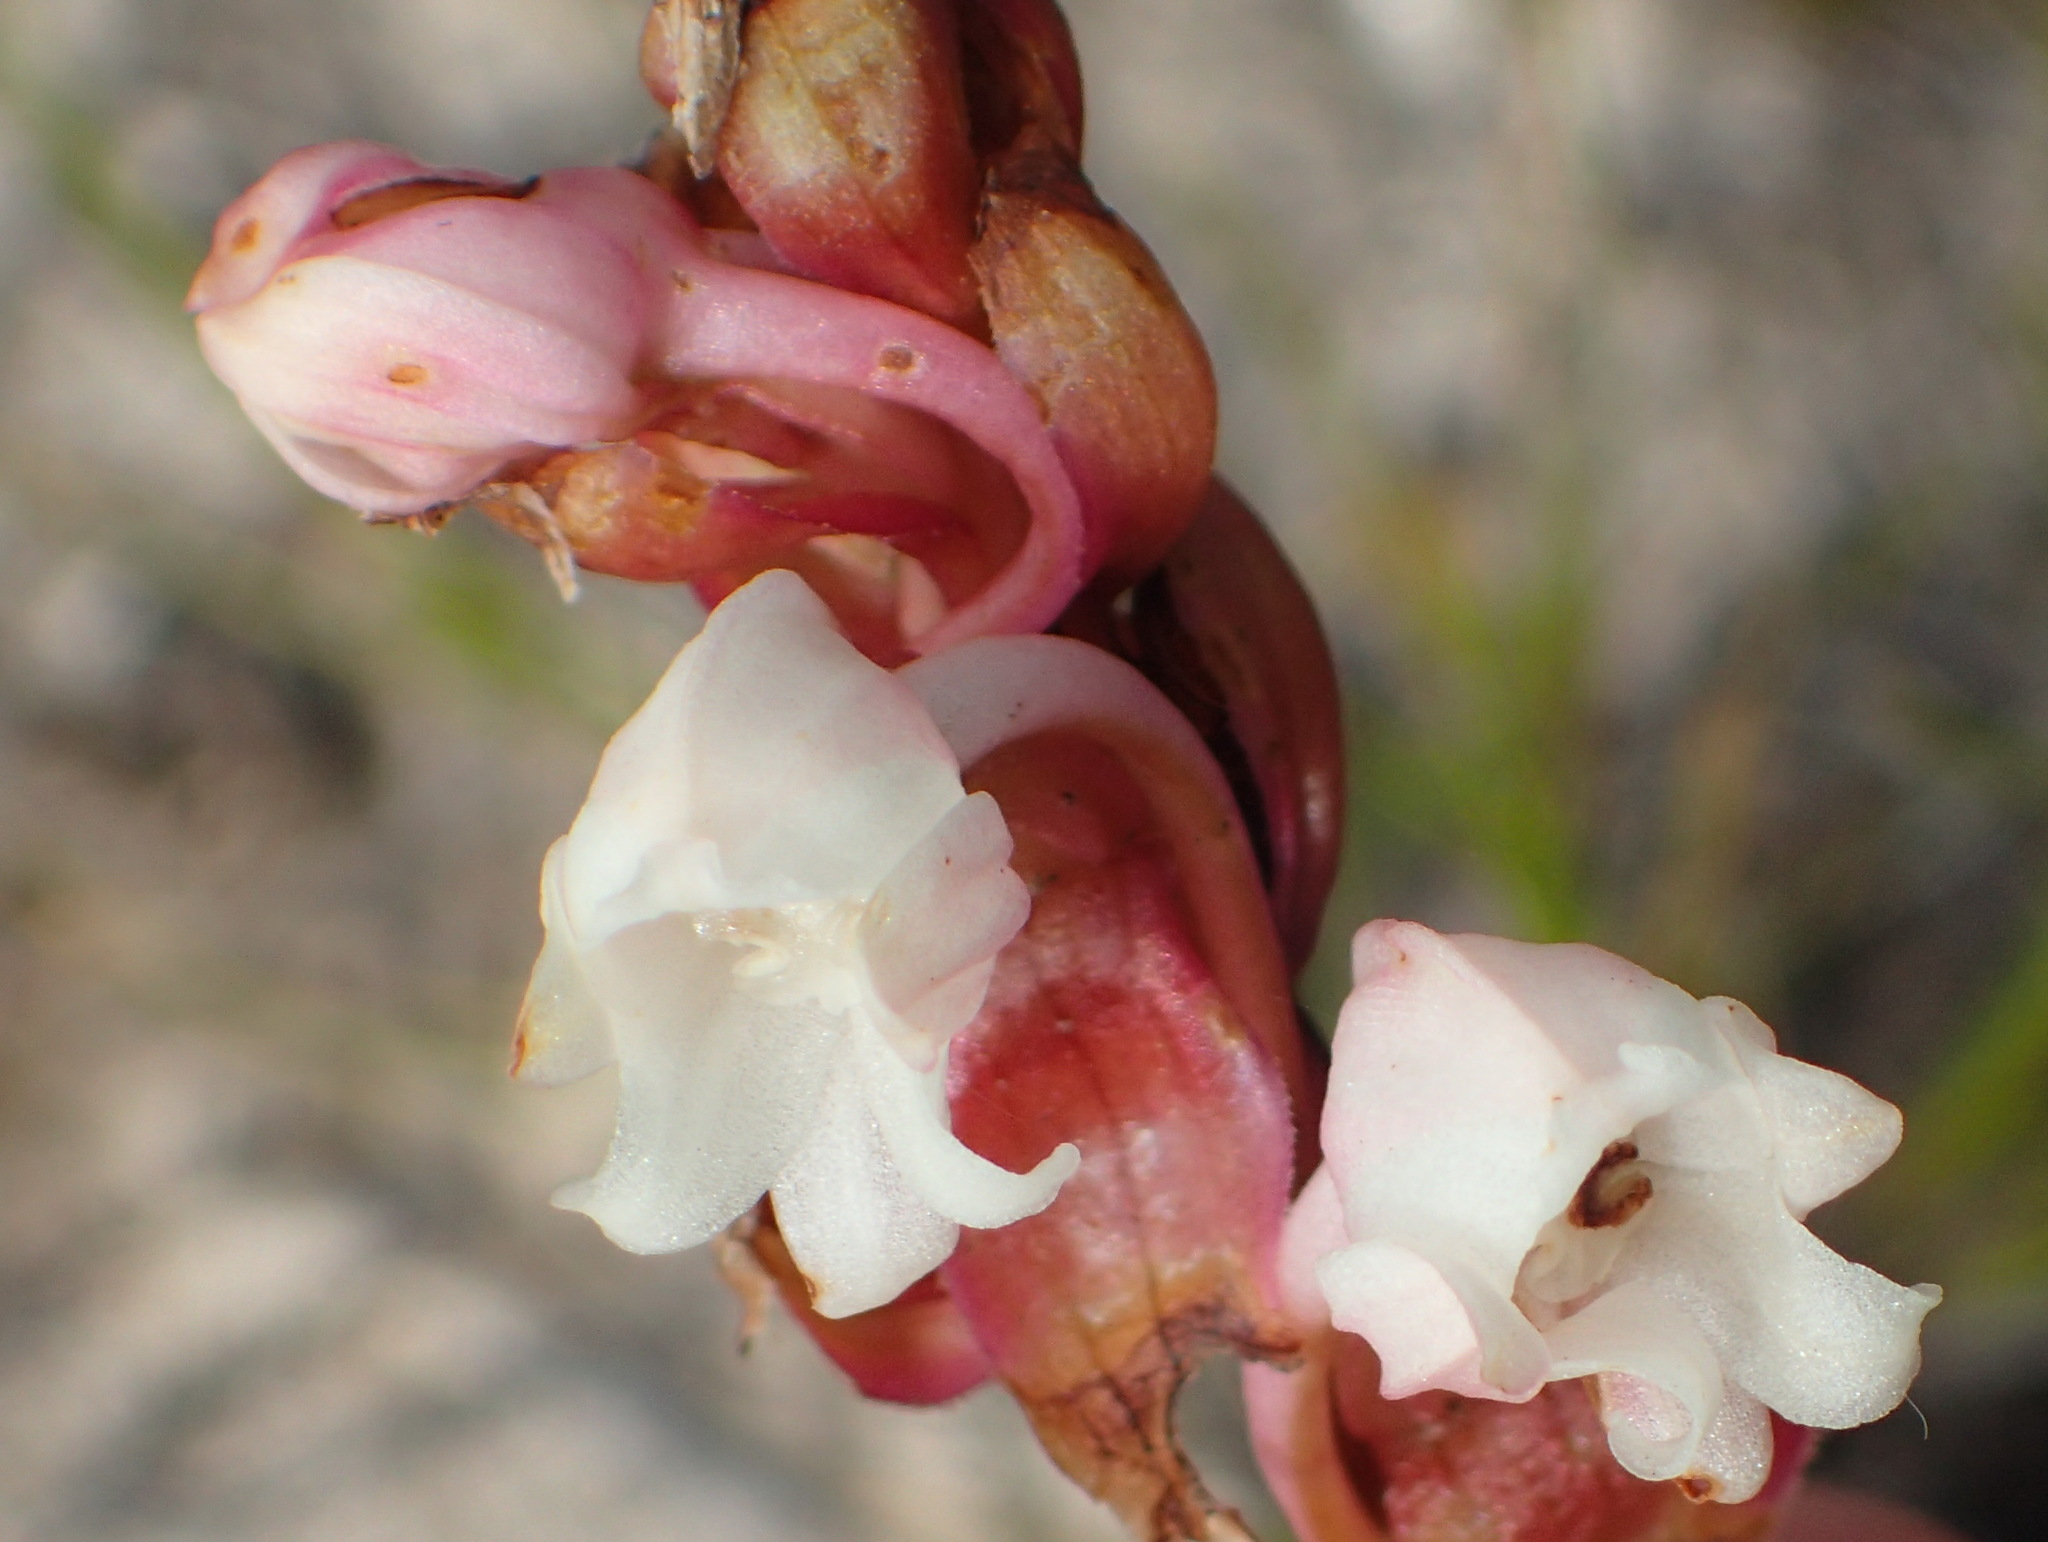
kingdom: Plantae
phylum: Tracheophyta
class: Liliopsida
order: Asparagales
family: Orchidaceae
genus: Satyrium
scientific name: Satyrium acuminatum
